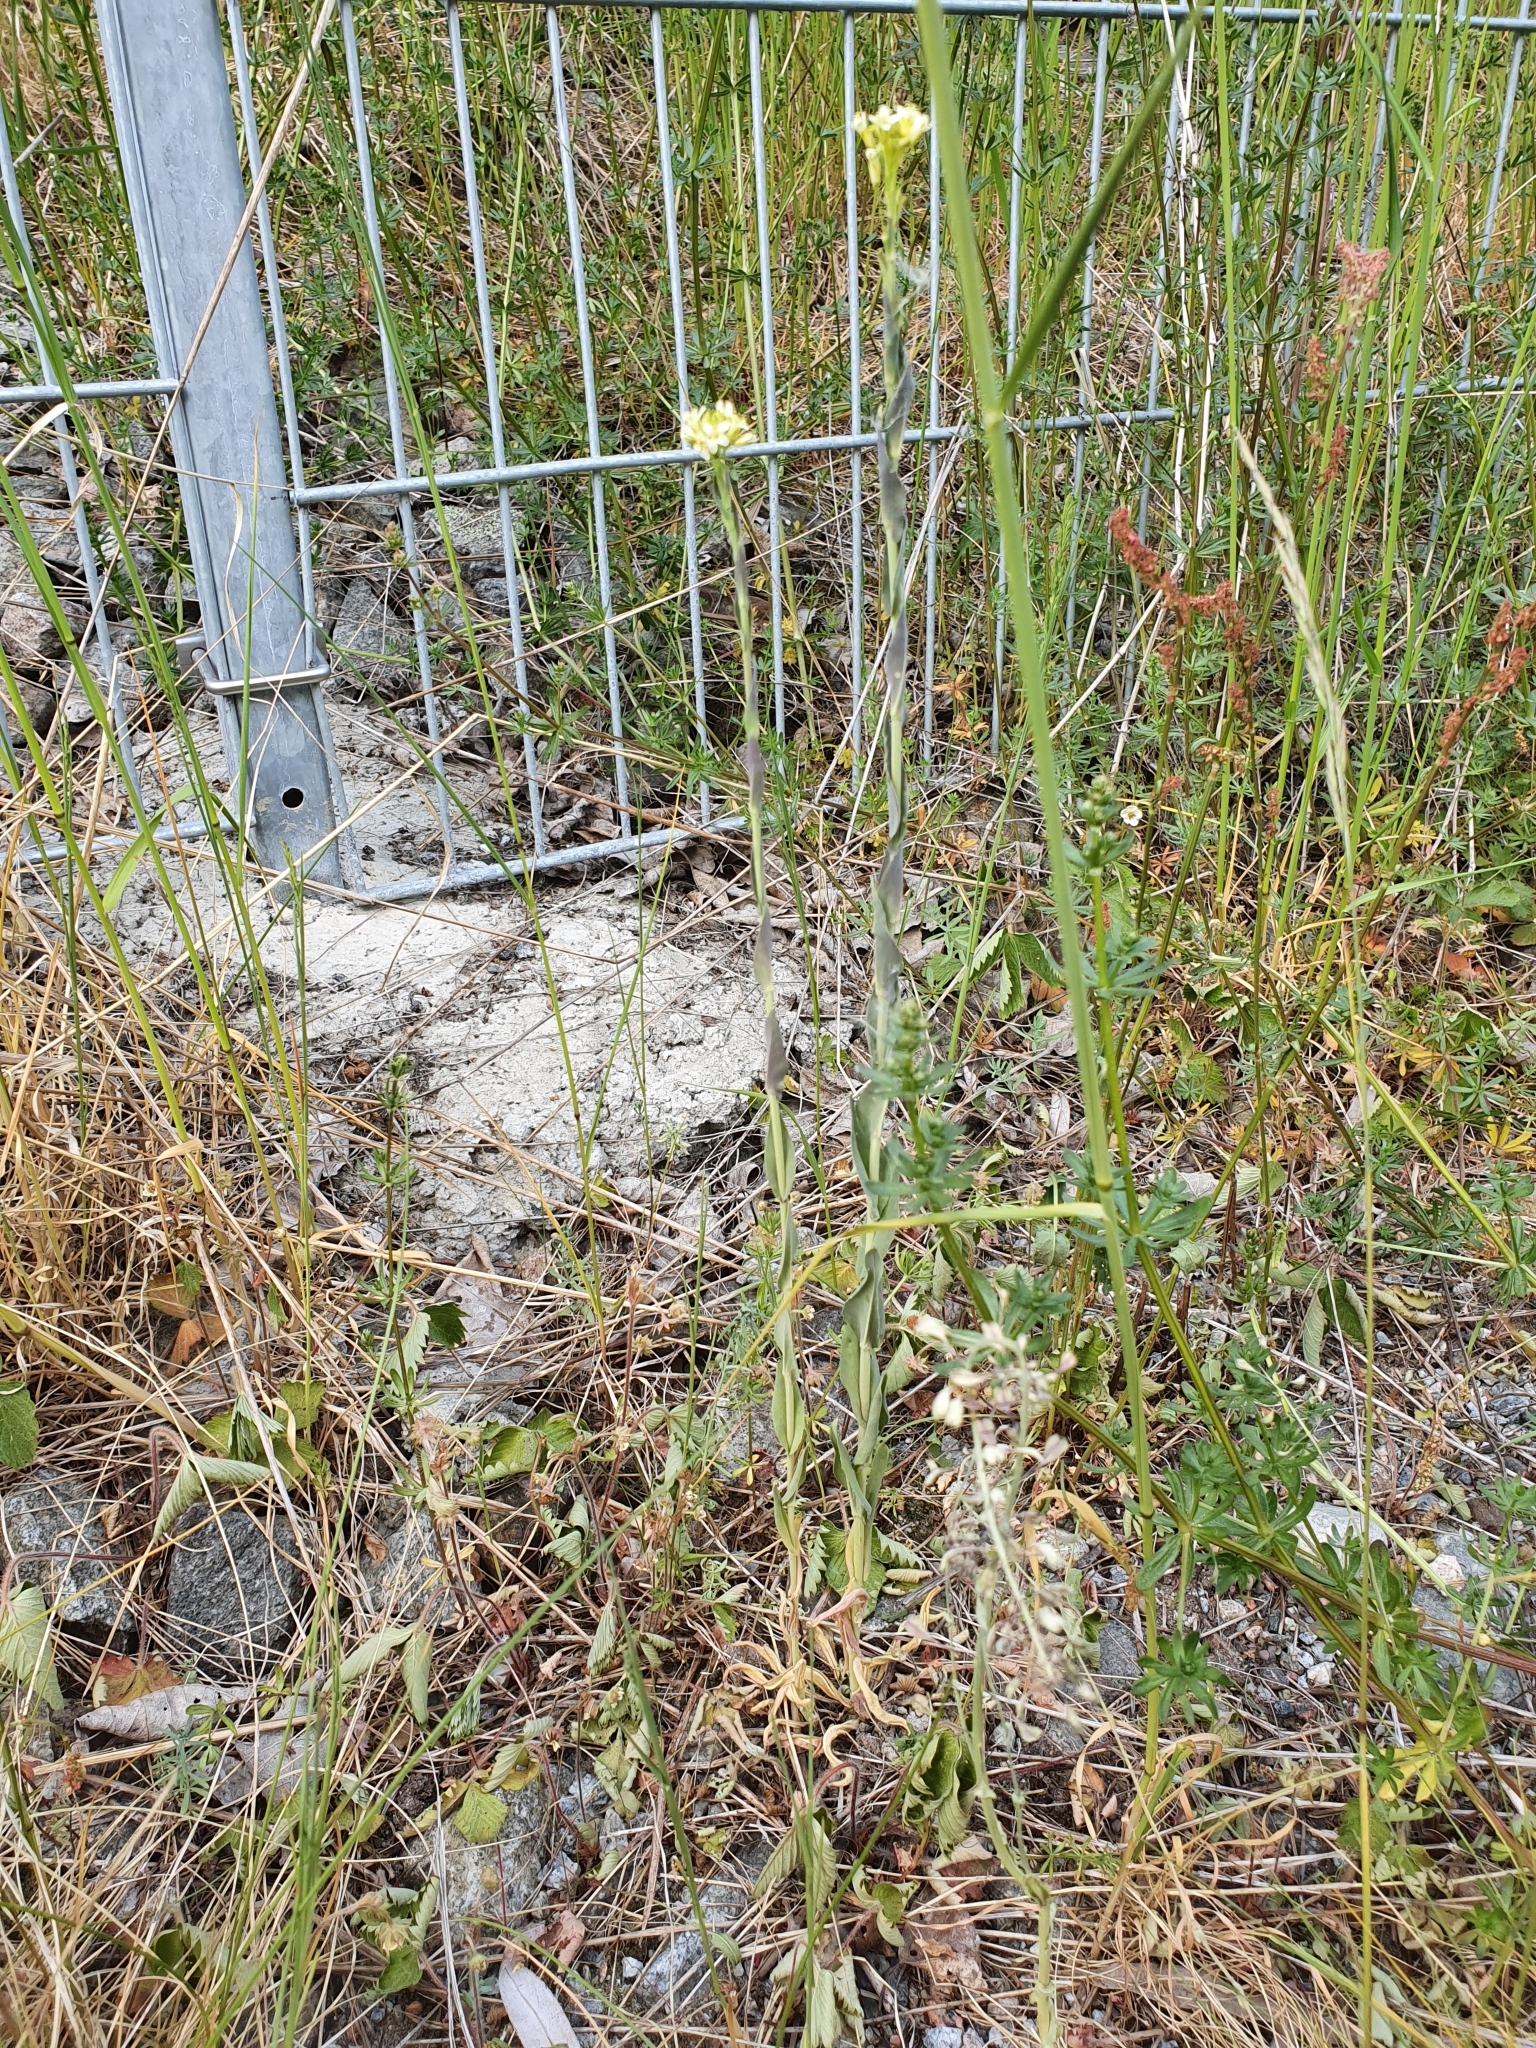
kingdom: Plantae
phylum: Tracheophyta
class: Magnoliopsida
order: Brassicales
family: Brassicaceae
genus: Turritis
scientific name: Turritis glabra
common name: Tower rockcress
